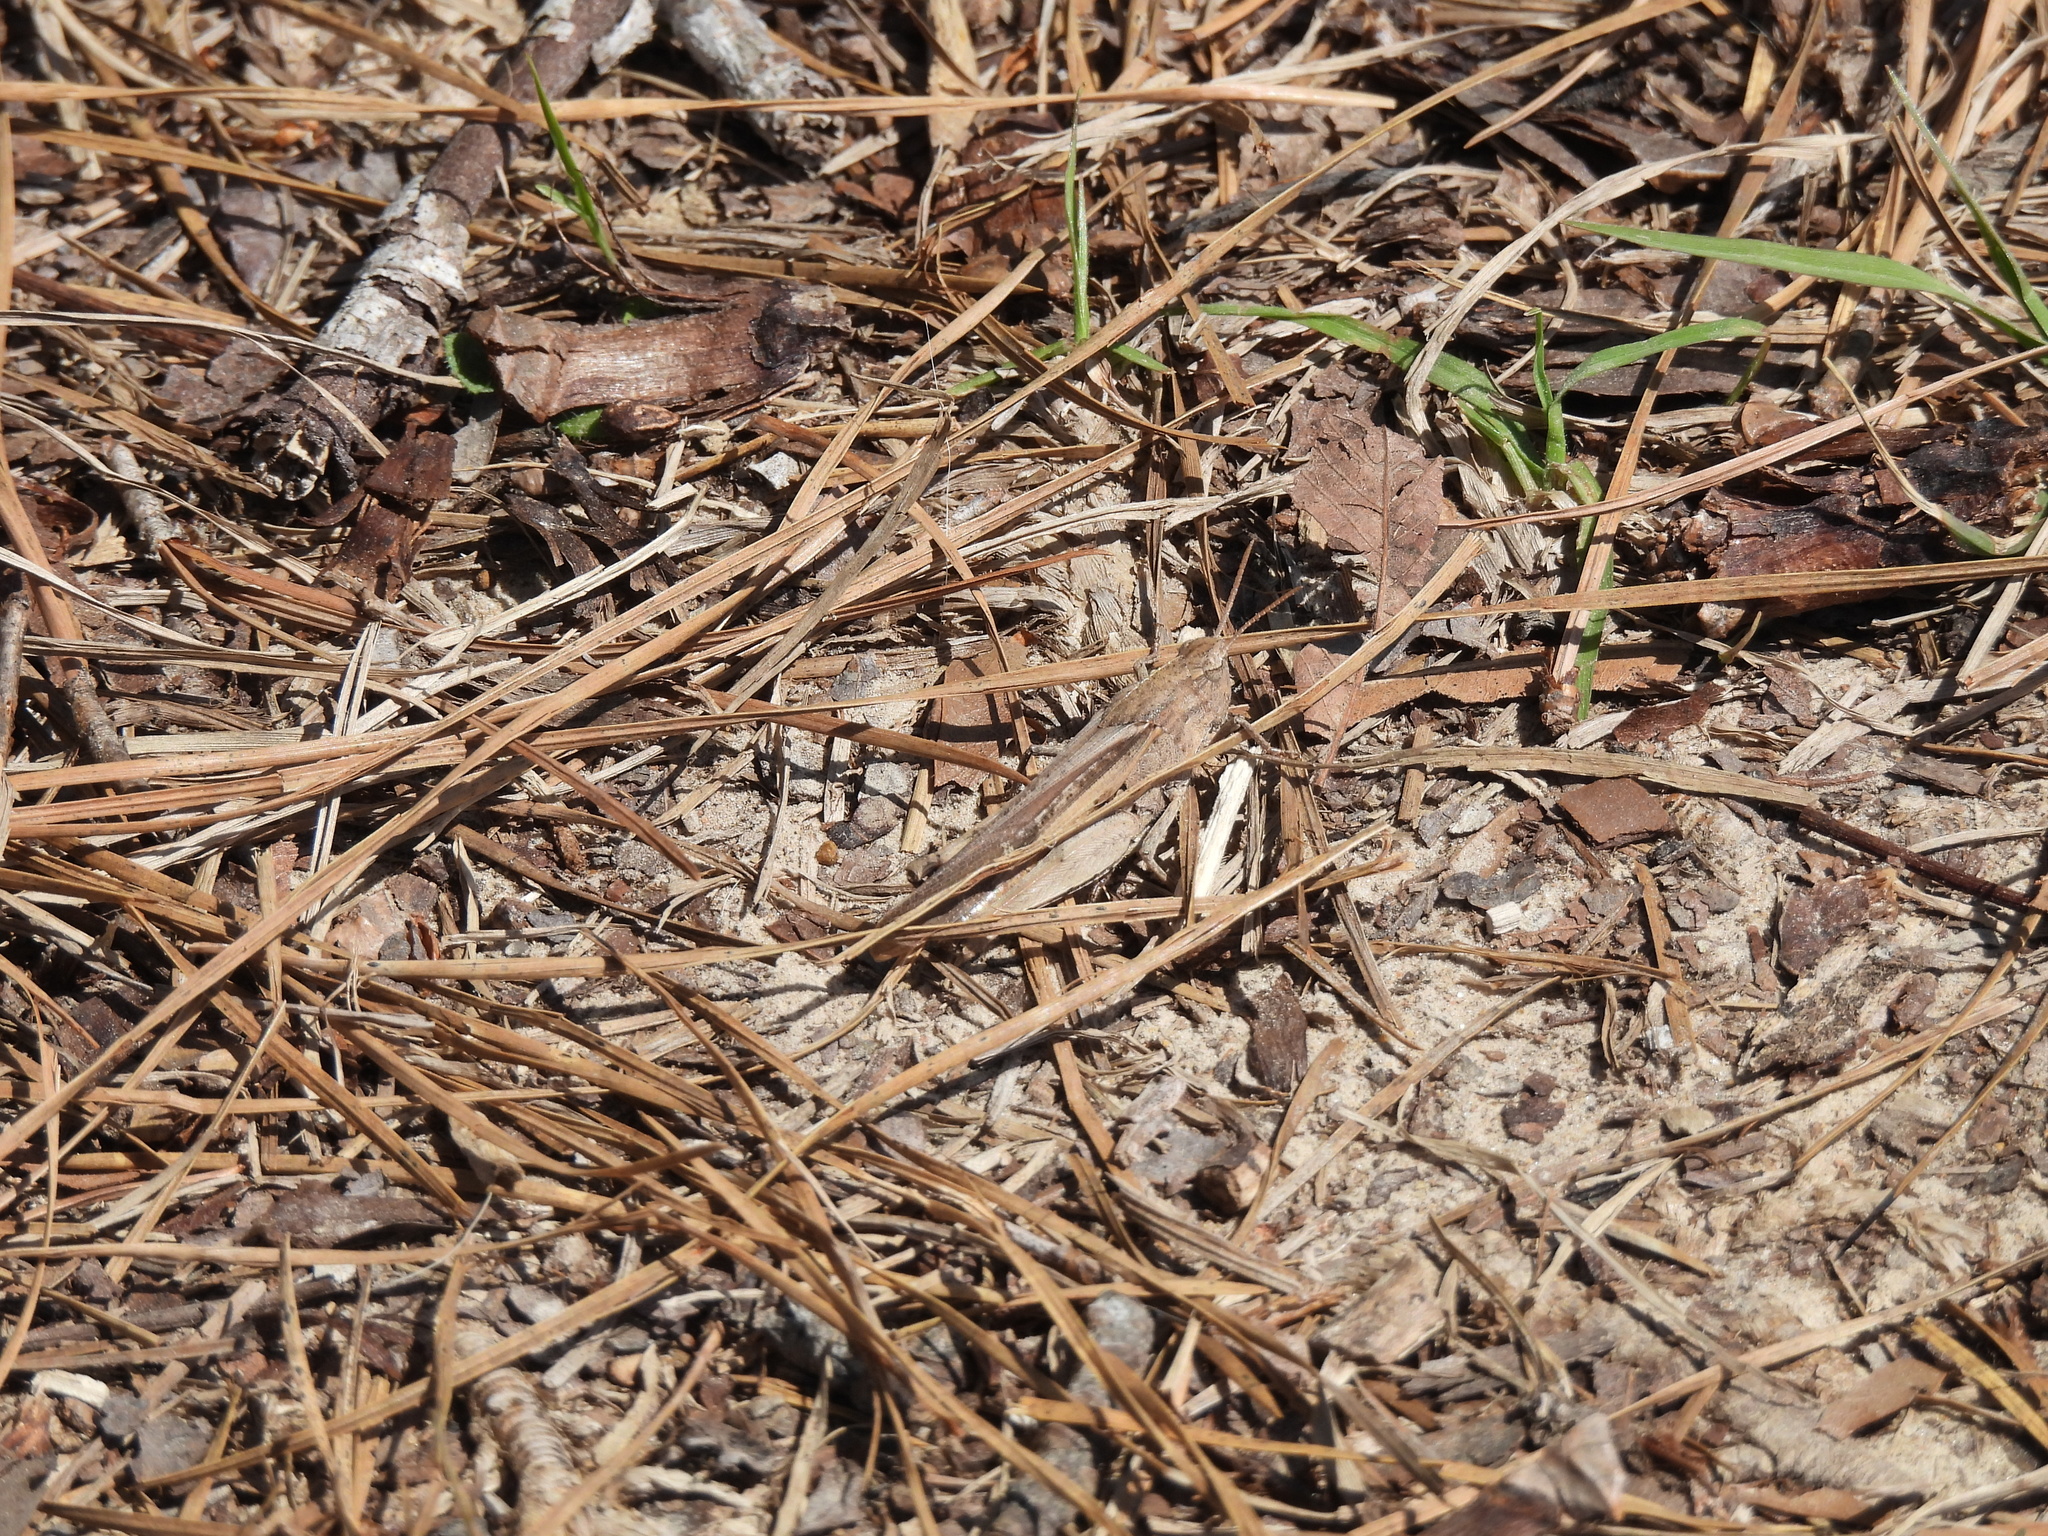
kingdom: Animalia
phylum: Arthropoda
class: Insecta
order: Orthoptera
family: Acrididae
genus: Chortophaga
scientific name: Chortophaga viridifasciata
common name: Green-striped grasshopper
